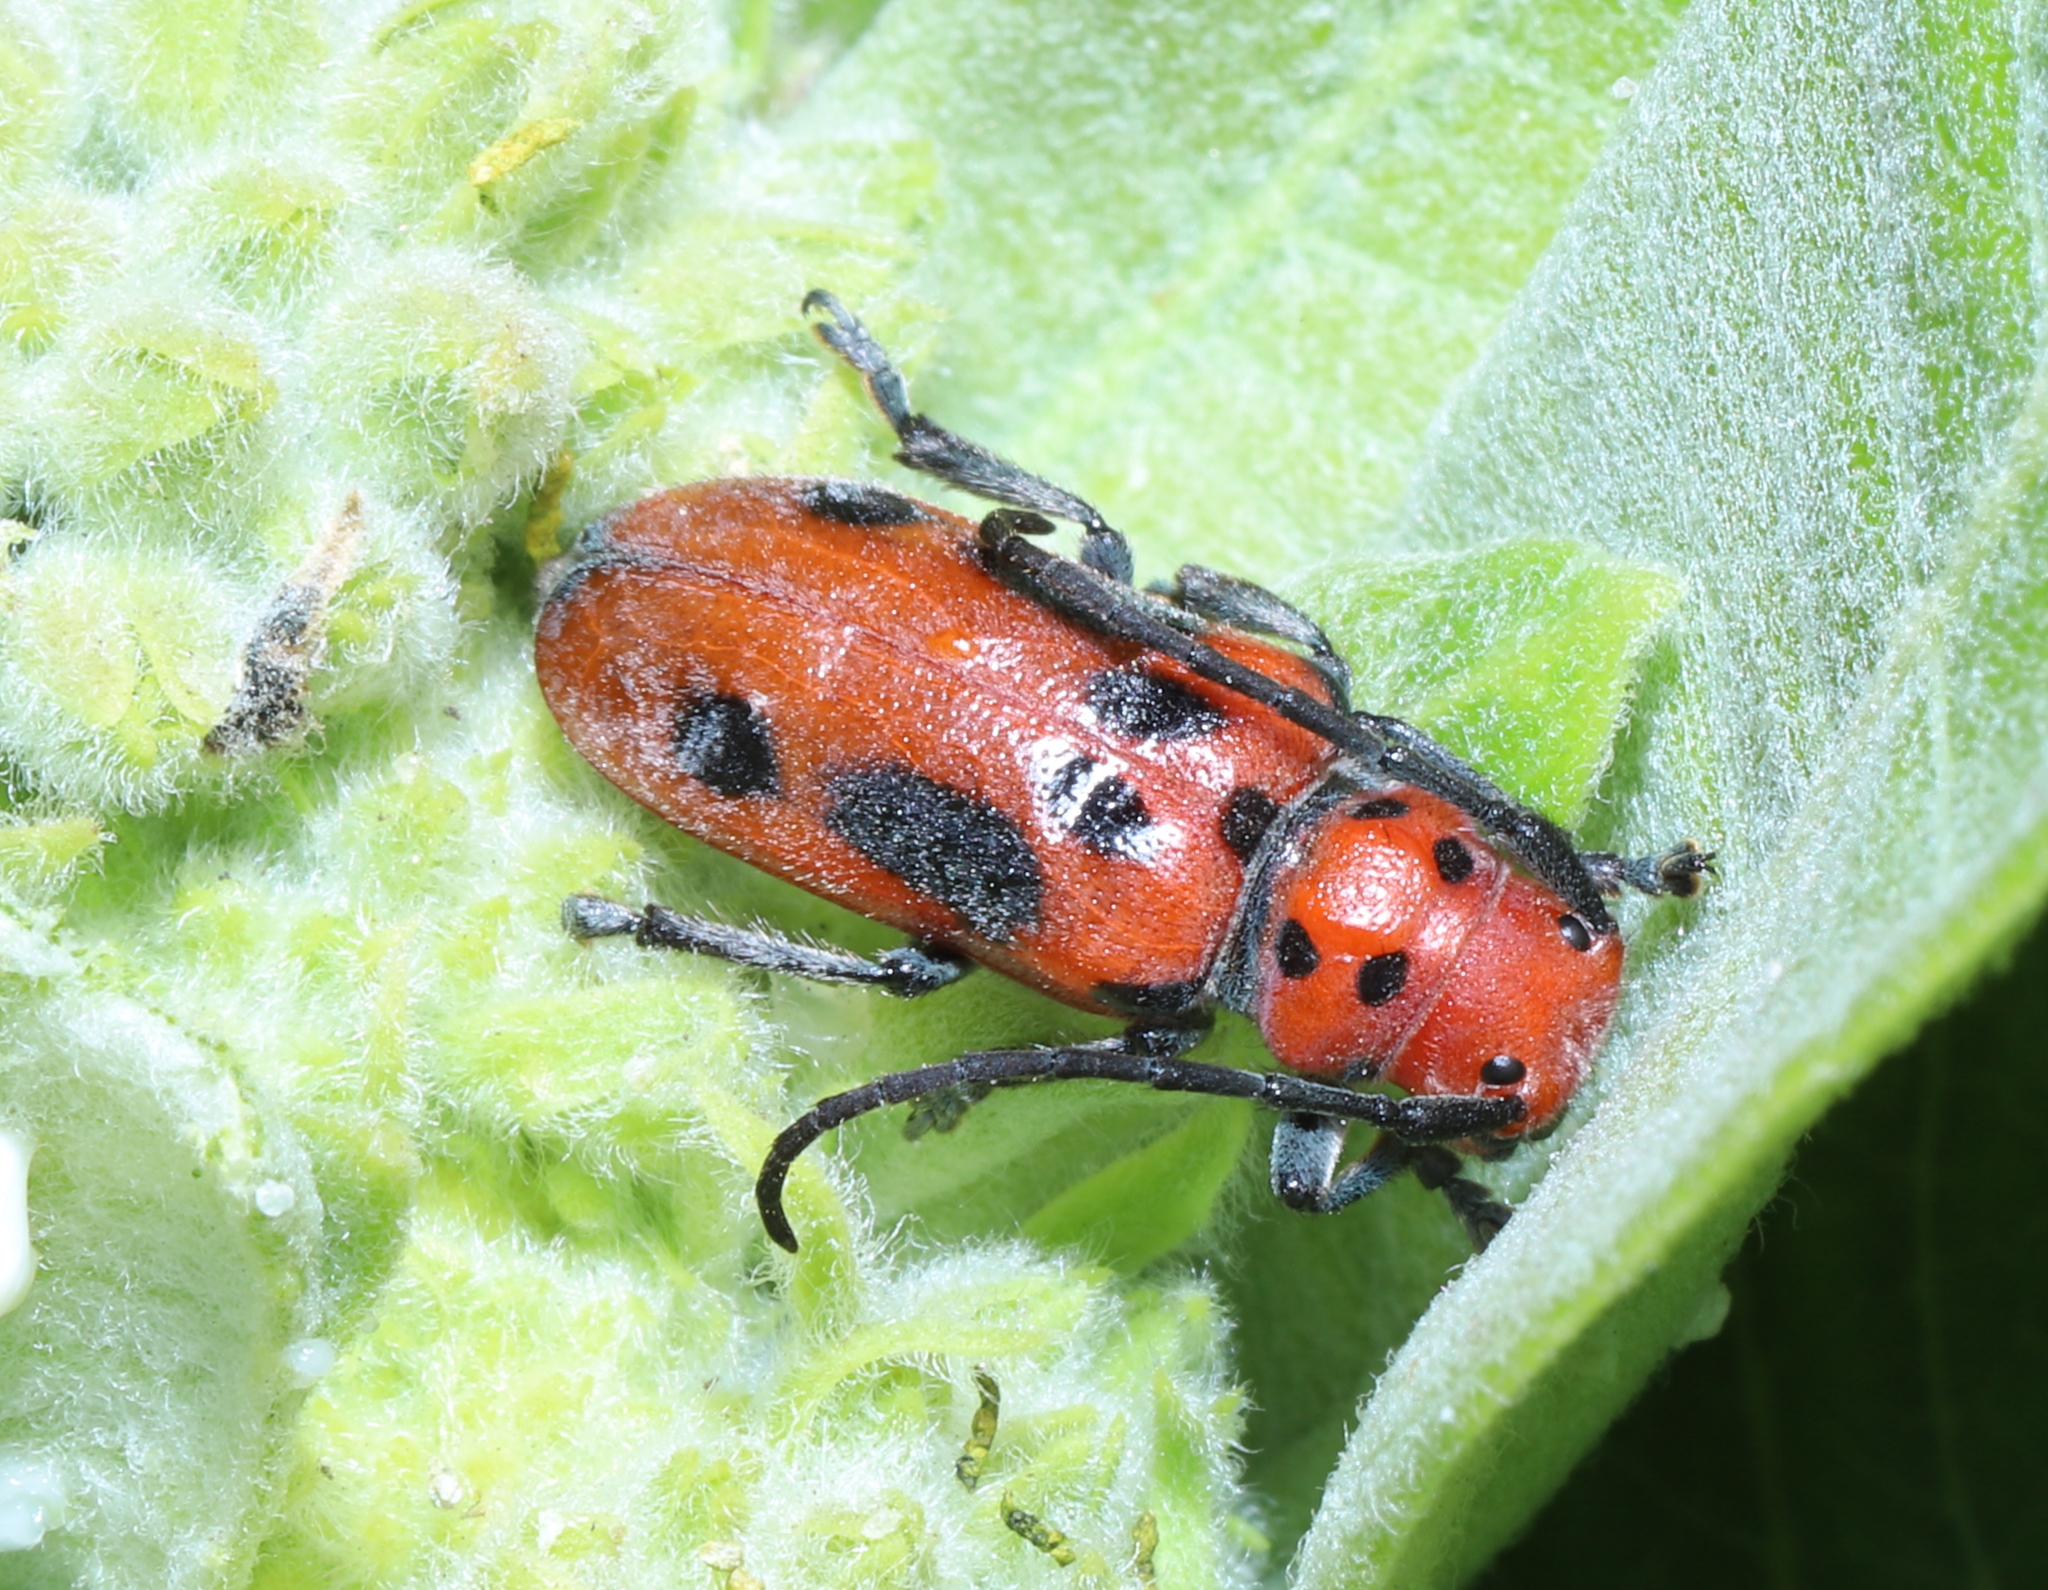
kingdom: Animalia
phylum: Arthropoda
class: Insecta
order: Coleoptera
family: Cerambycidae
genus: Tetraopes
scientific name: Tetraopes tetrophthalmus
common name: Red milkweed beetle
